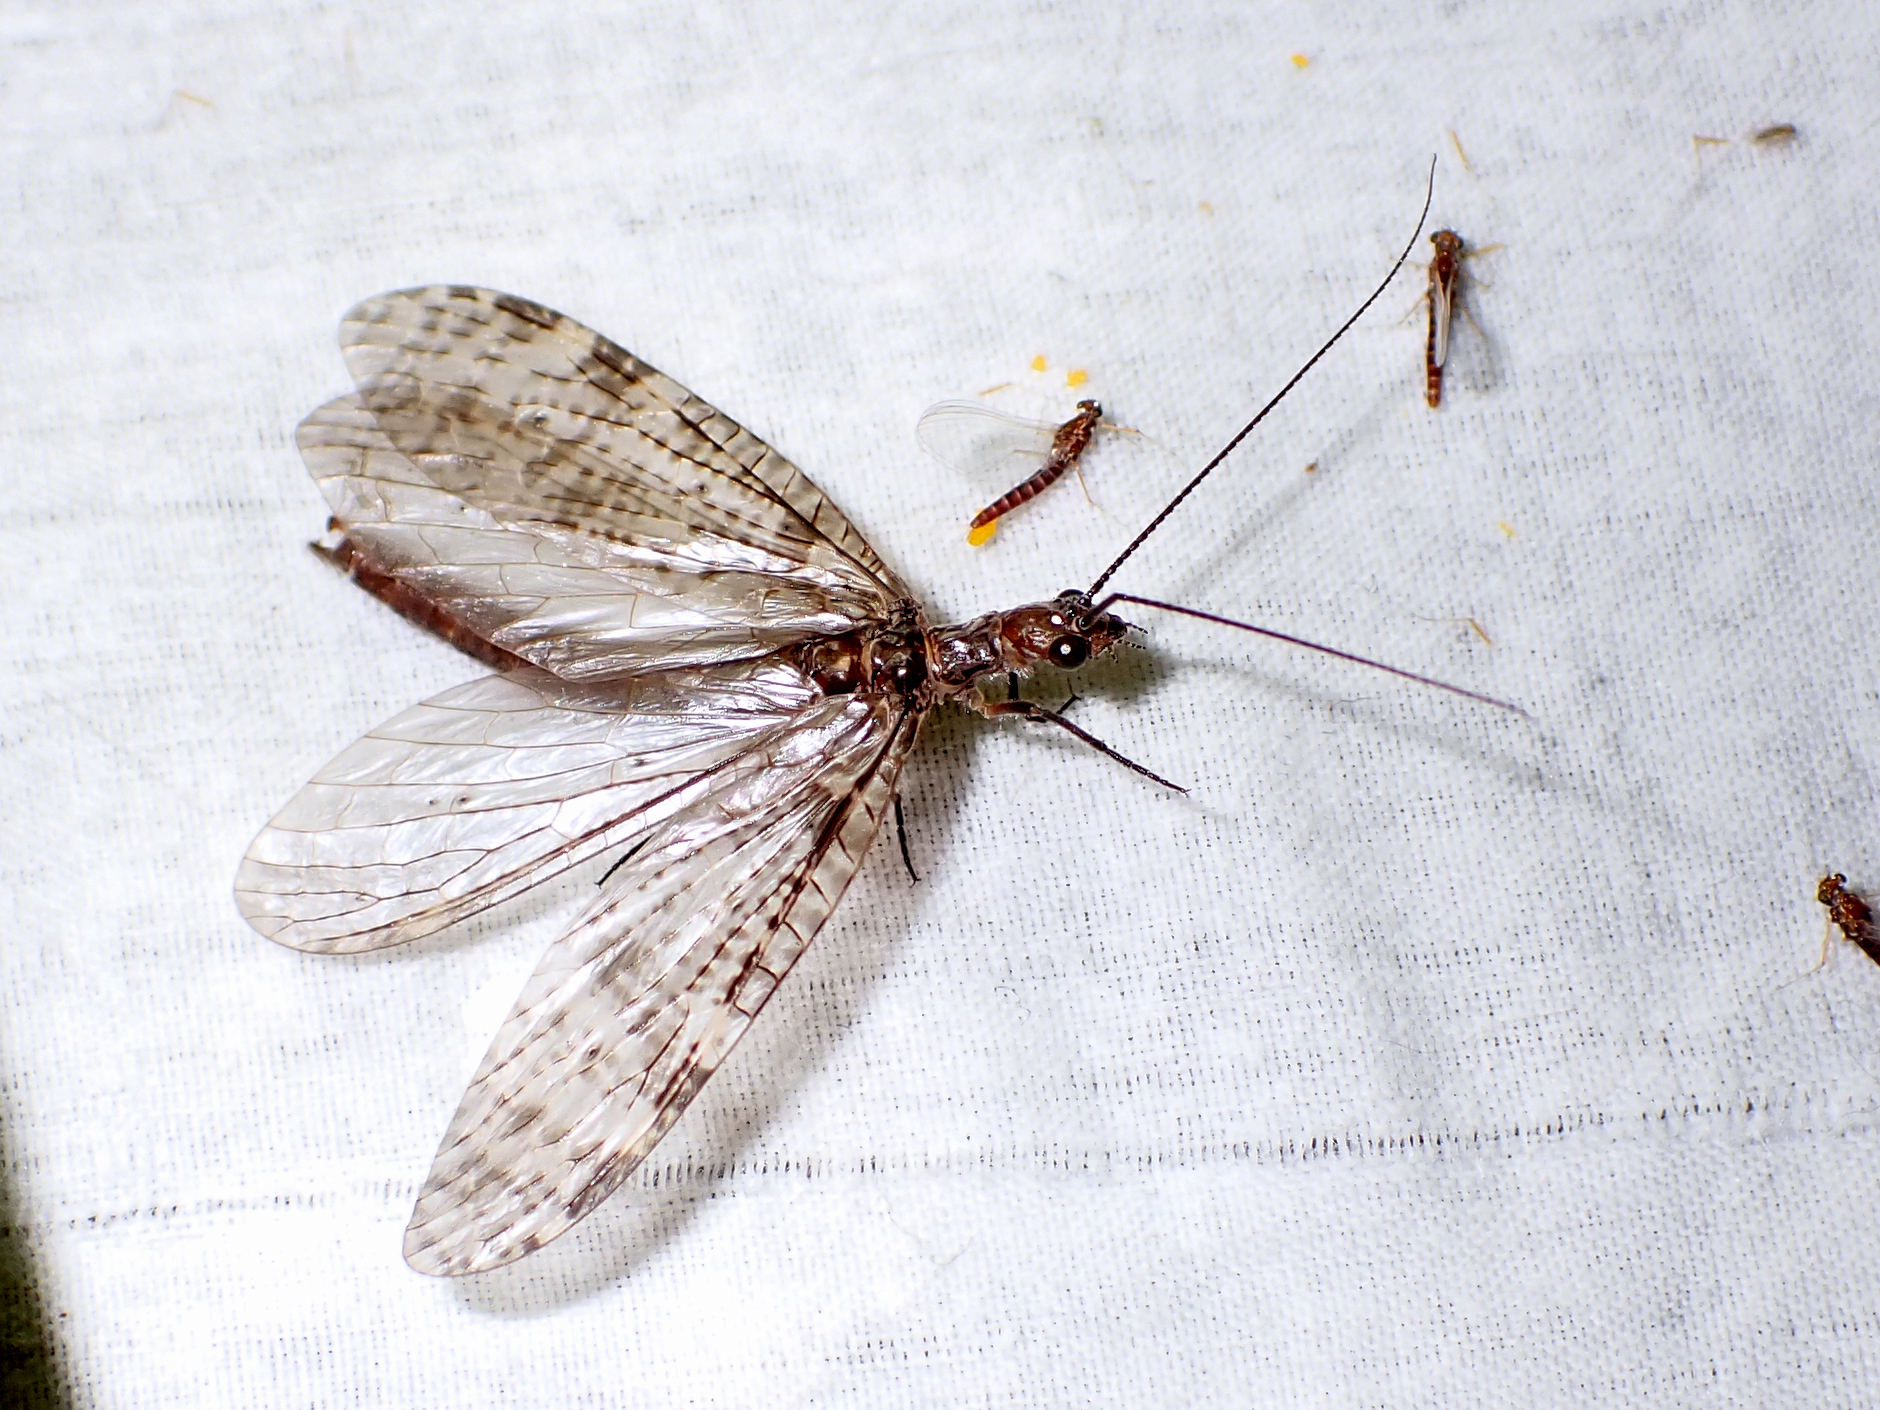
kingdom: Animalia
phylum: Arthropoda
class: Insecta
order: Megaloptera
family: Corydalidae
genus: Archichauliodes
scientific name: Archichauliodes diversus
